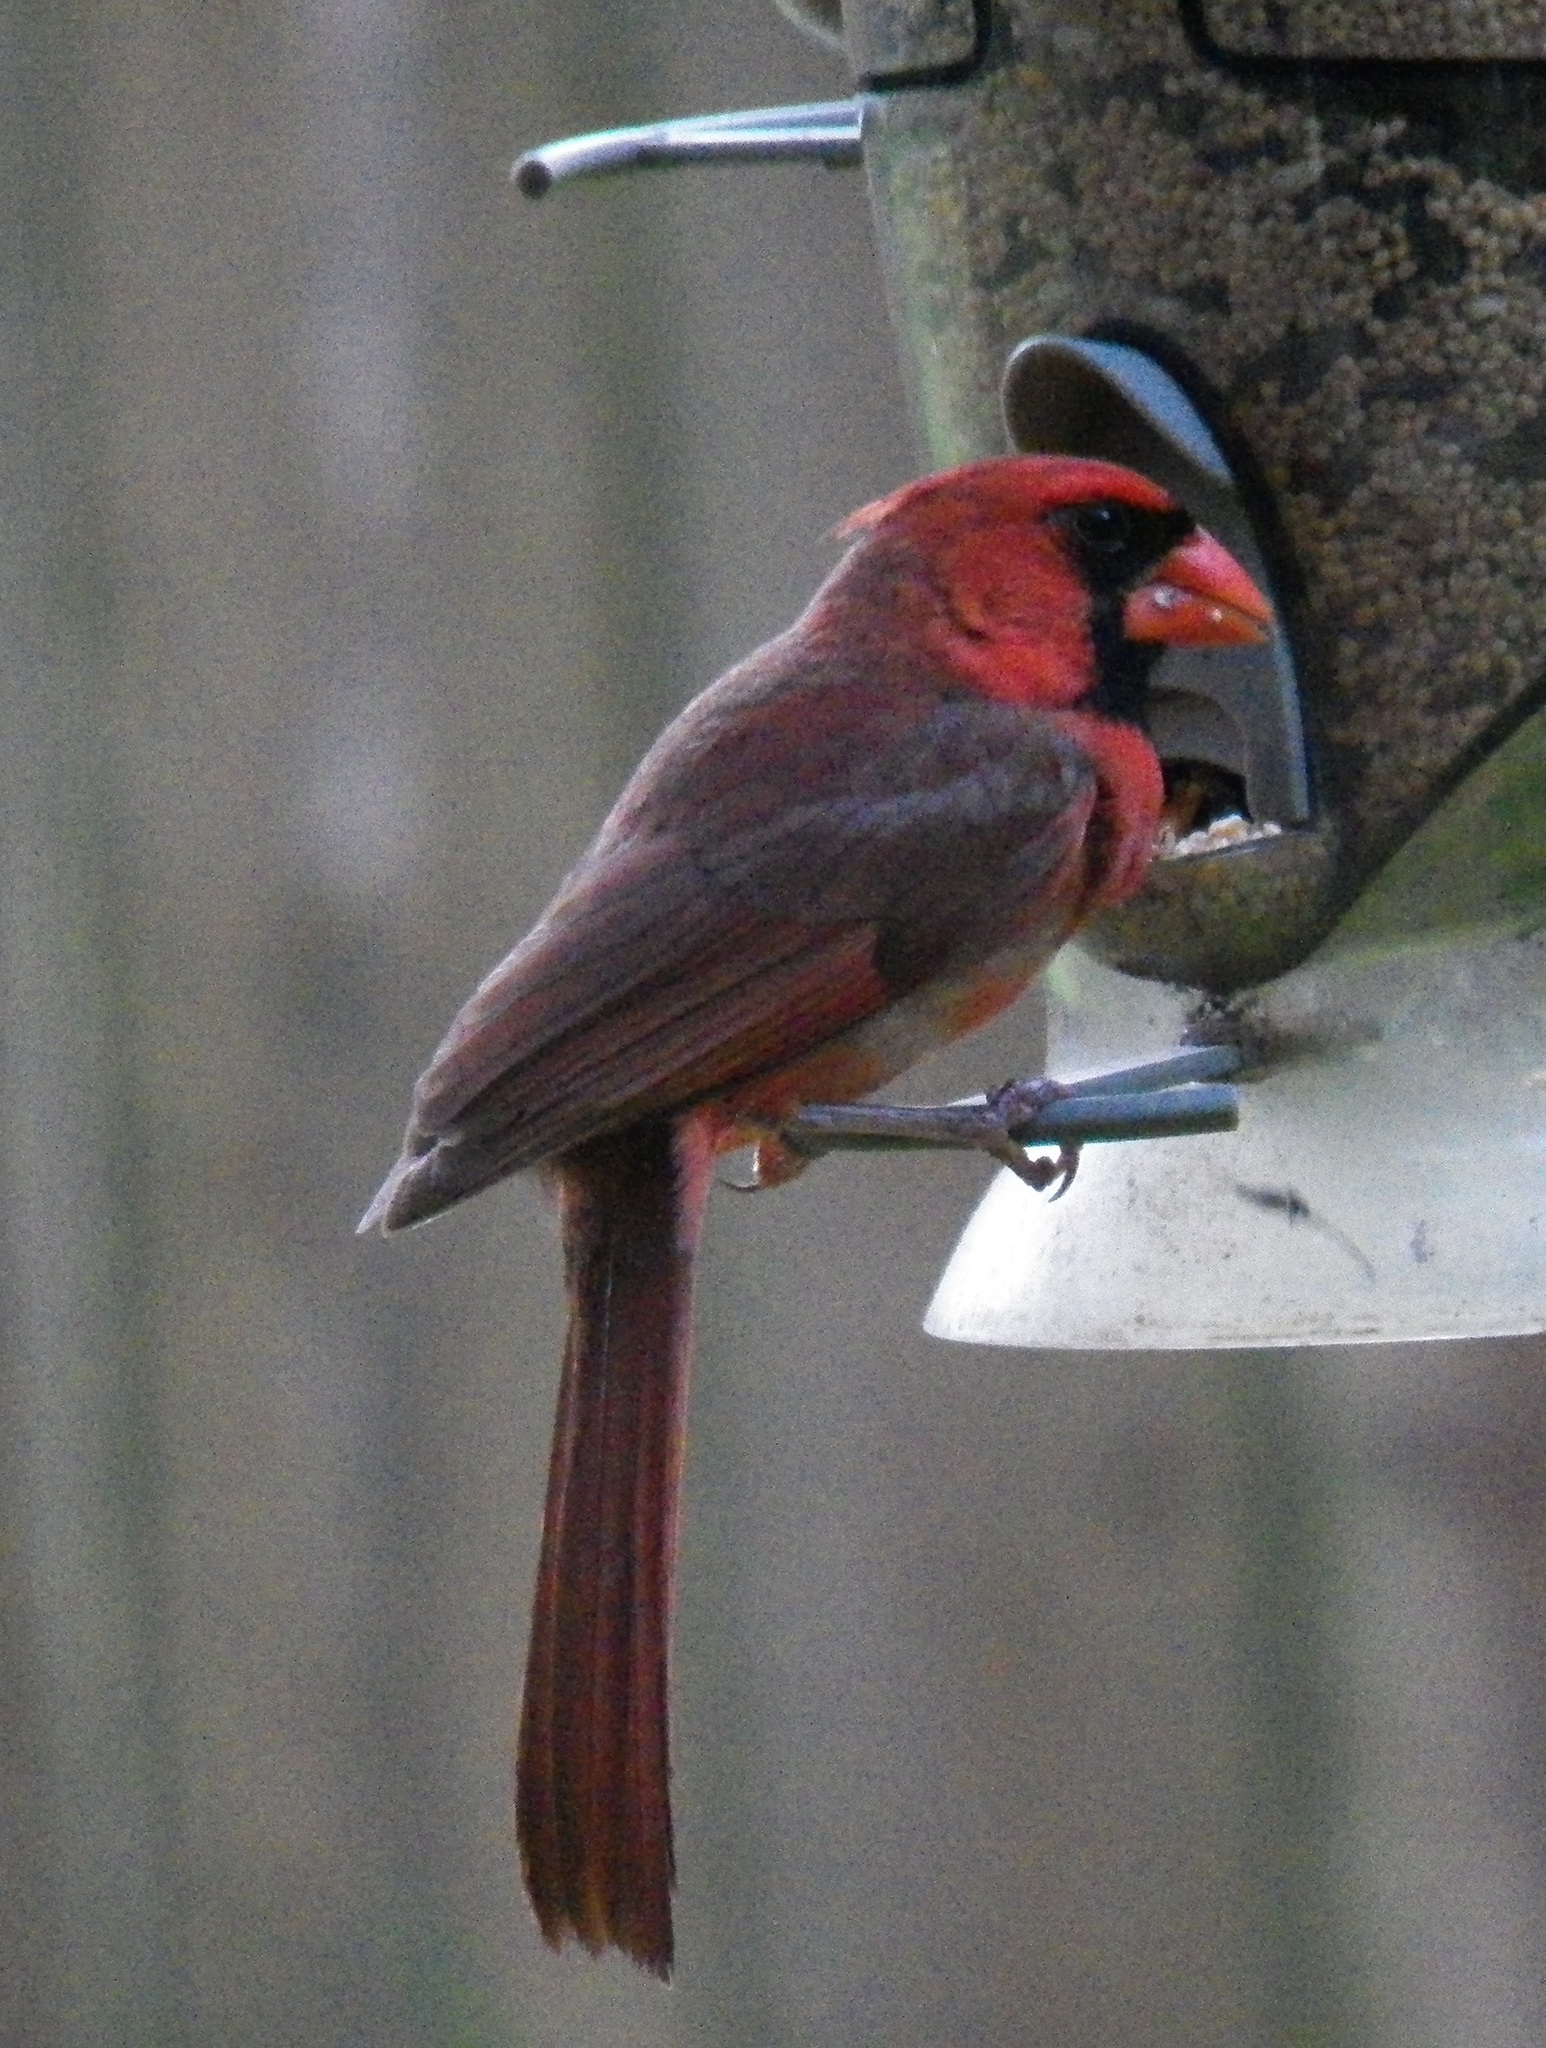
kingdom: Animalia
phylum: Chordata
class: Aves
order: Passeriformes
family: Cardinalidae
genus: Cardinalis
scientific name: Cardinalis cardinalis
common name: Northern cardinal
